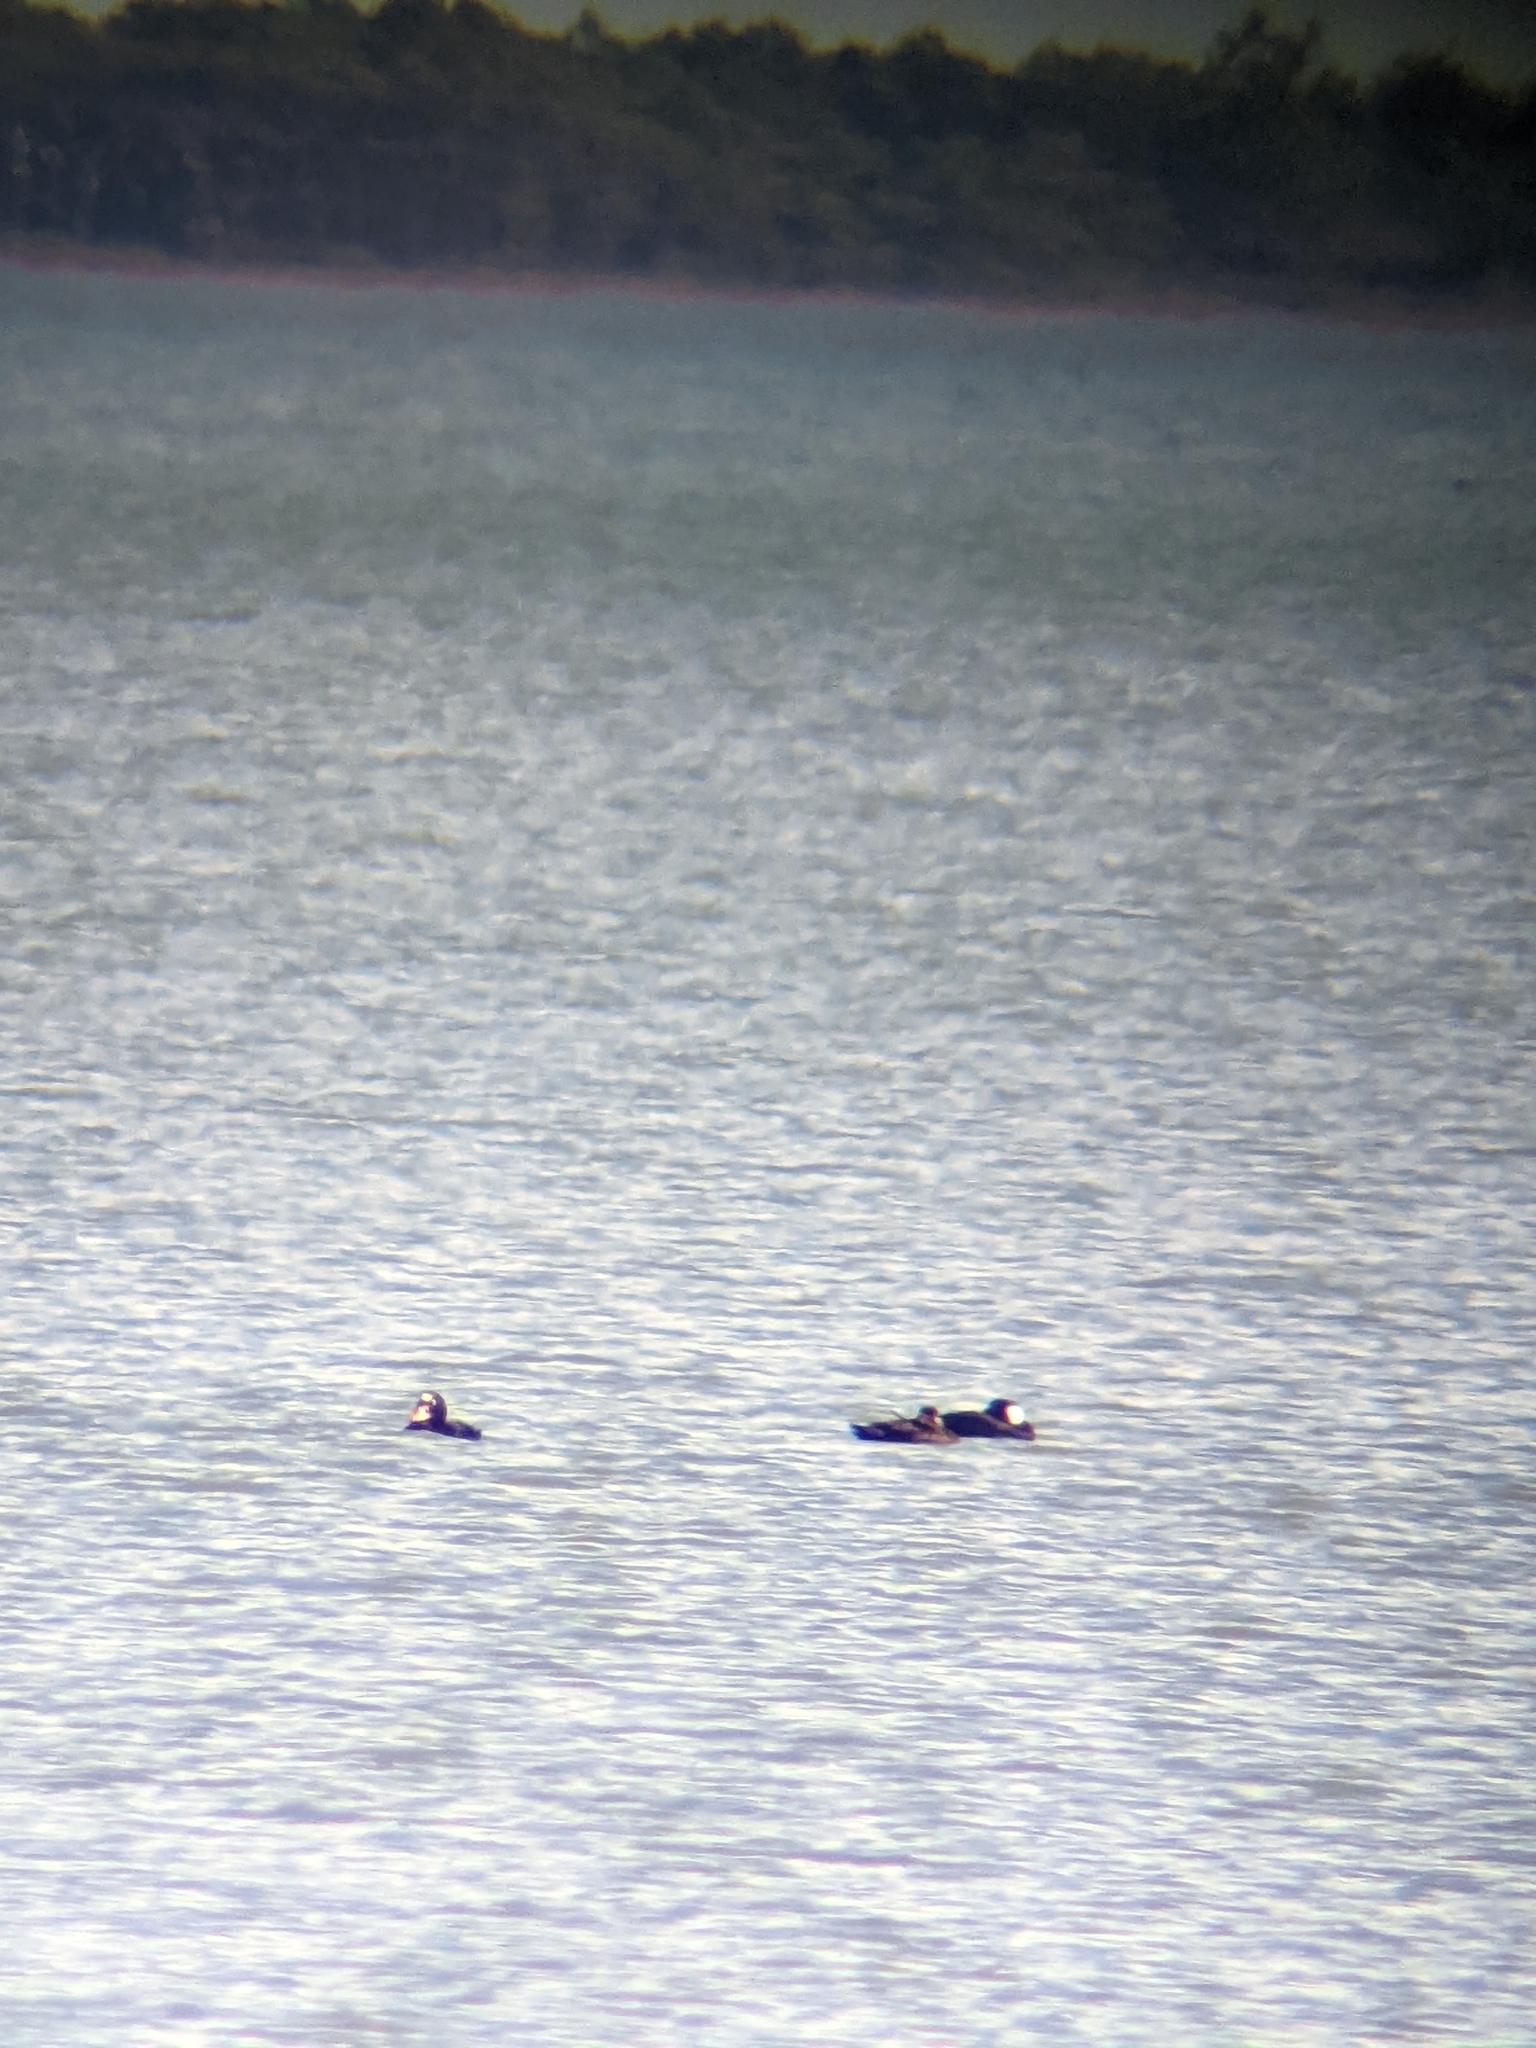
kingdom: Animalia
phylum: Chordata
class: Aves
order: Anseriformes
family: Anatidae
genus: Melanitta
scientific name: Melanitta perspicillata
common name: Surf scoter
